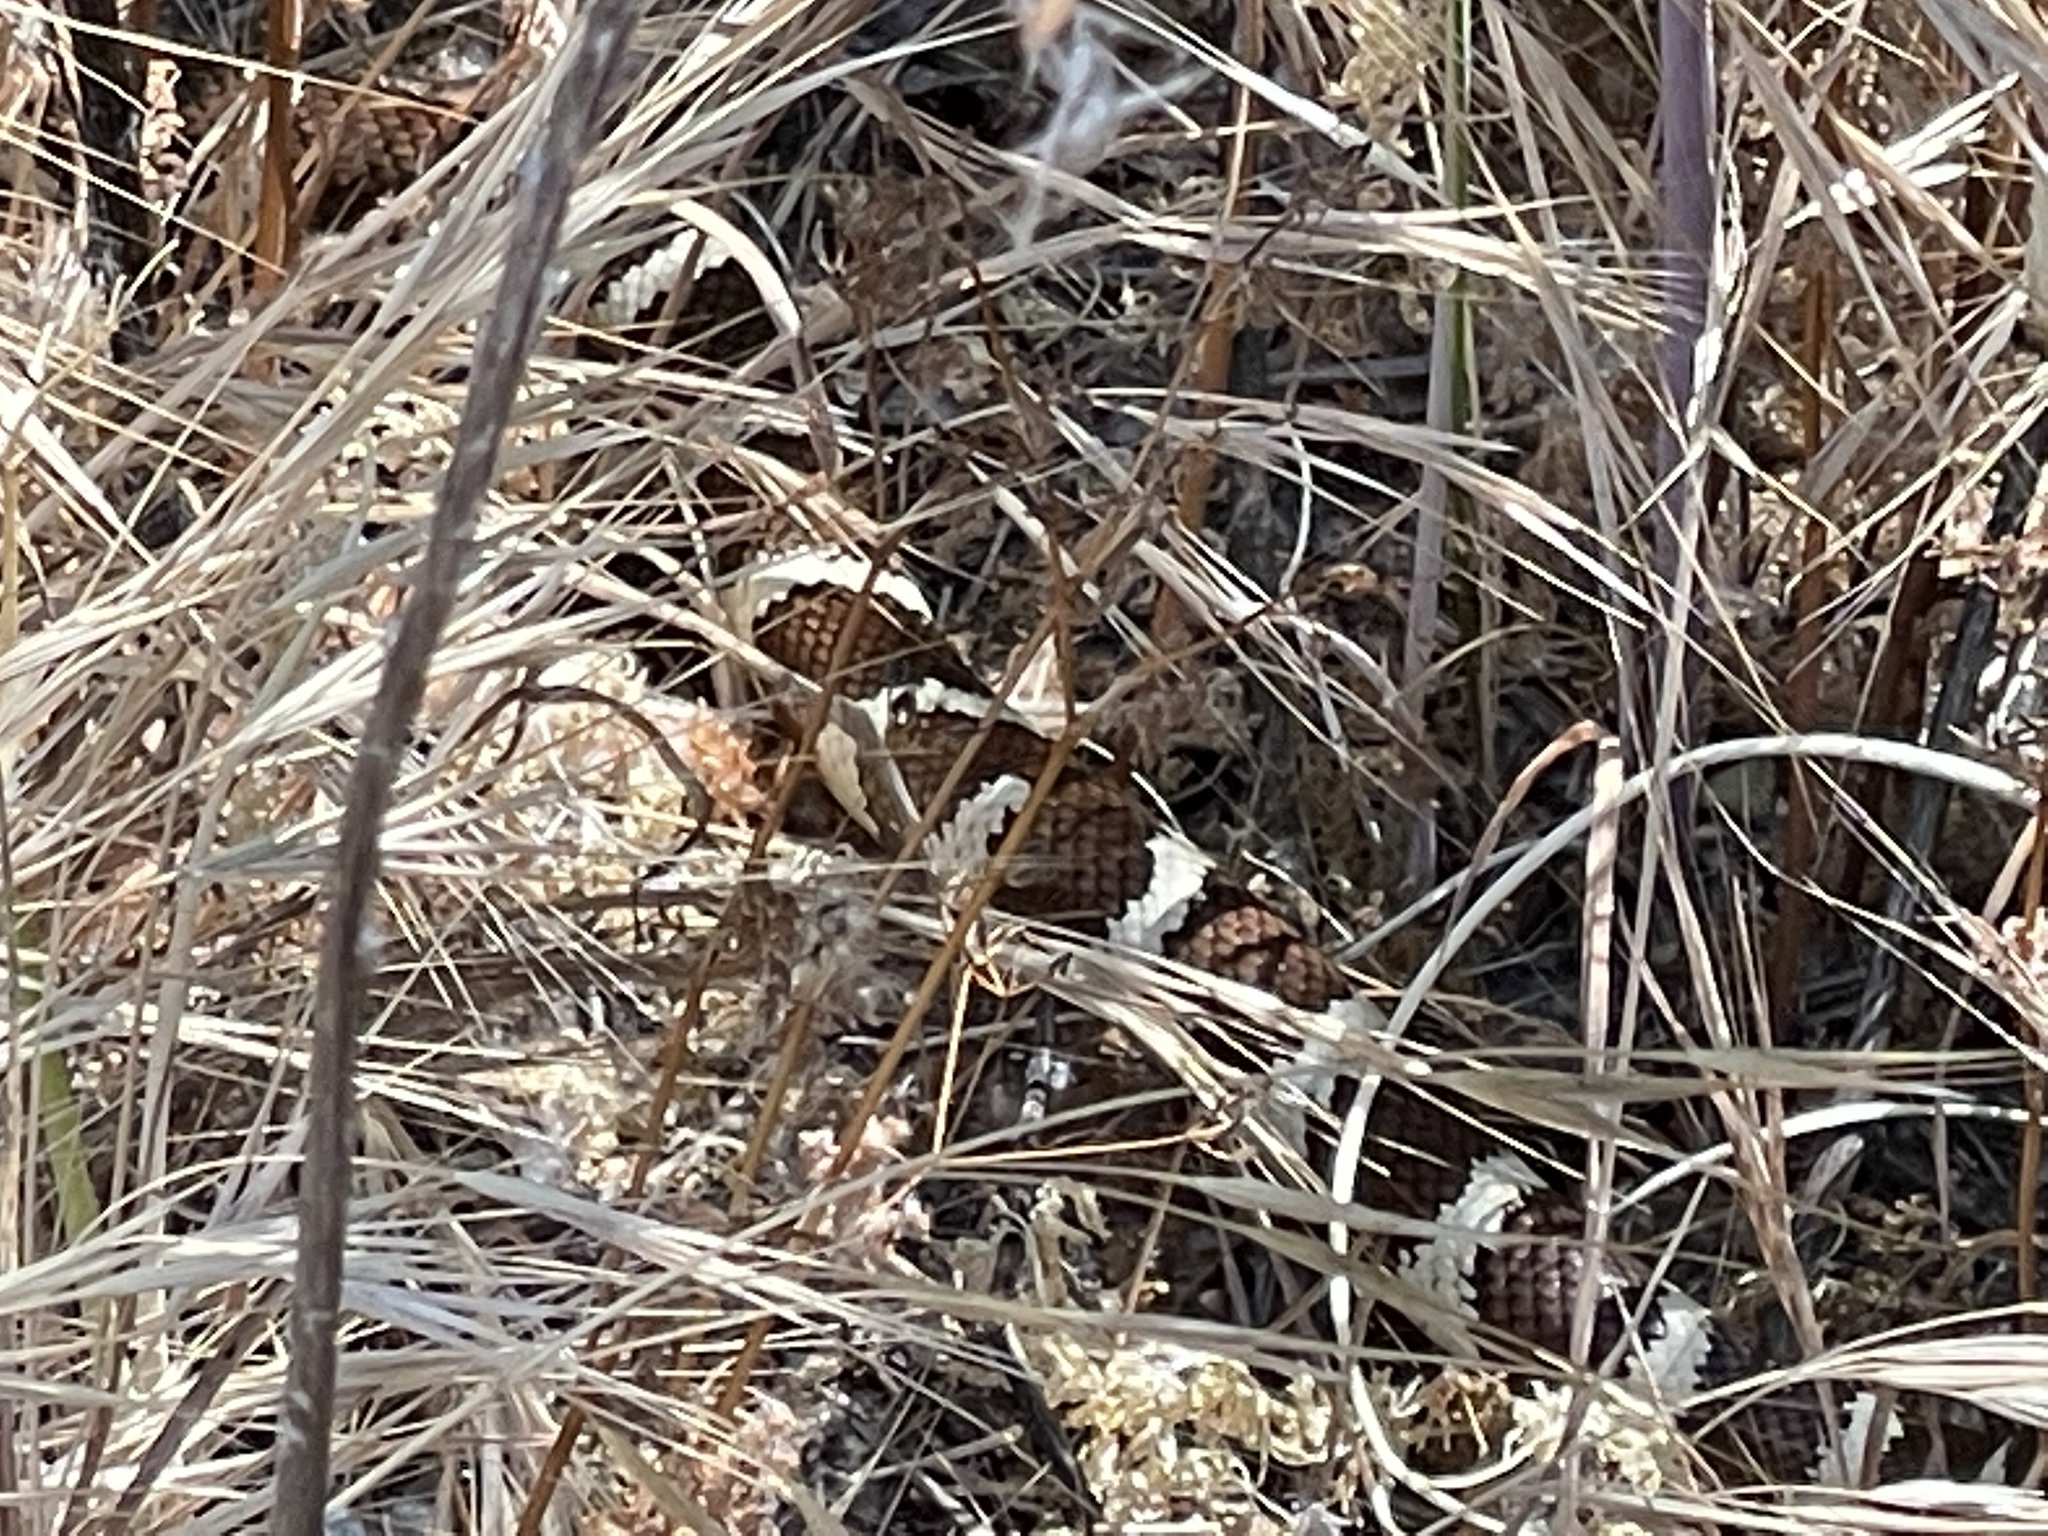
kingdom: Animalia
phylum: Chordata
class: Squamata
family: Colubridae
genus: Lampropeltis
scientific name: Lampropeltis californiae
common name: California kingsnake
